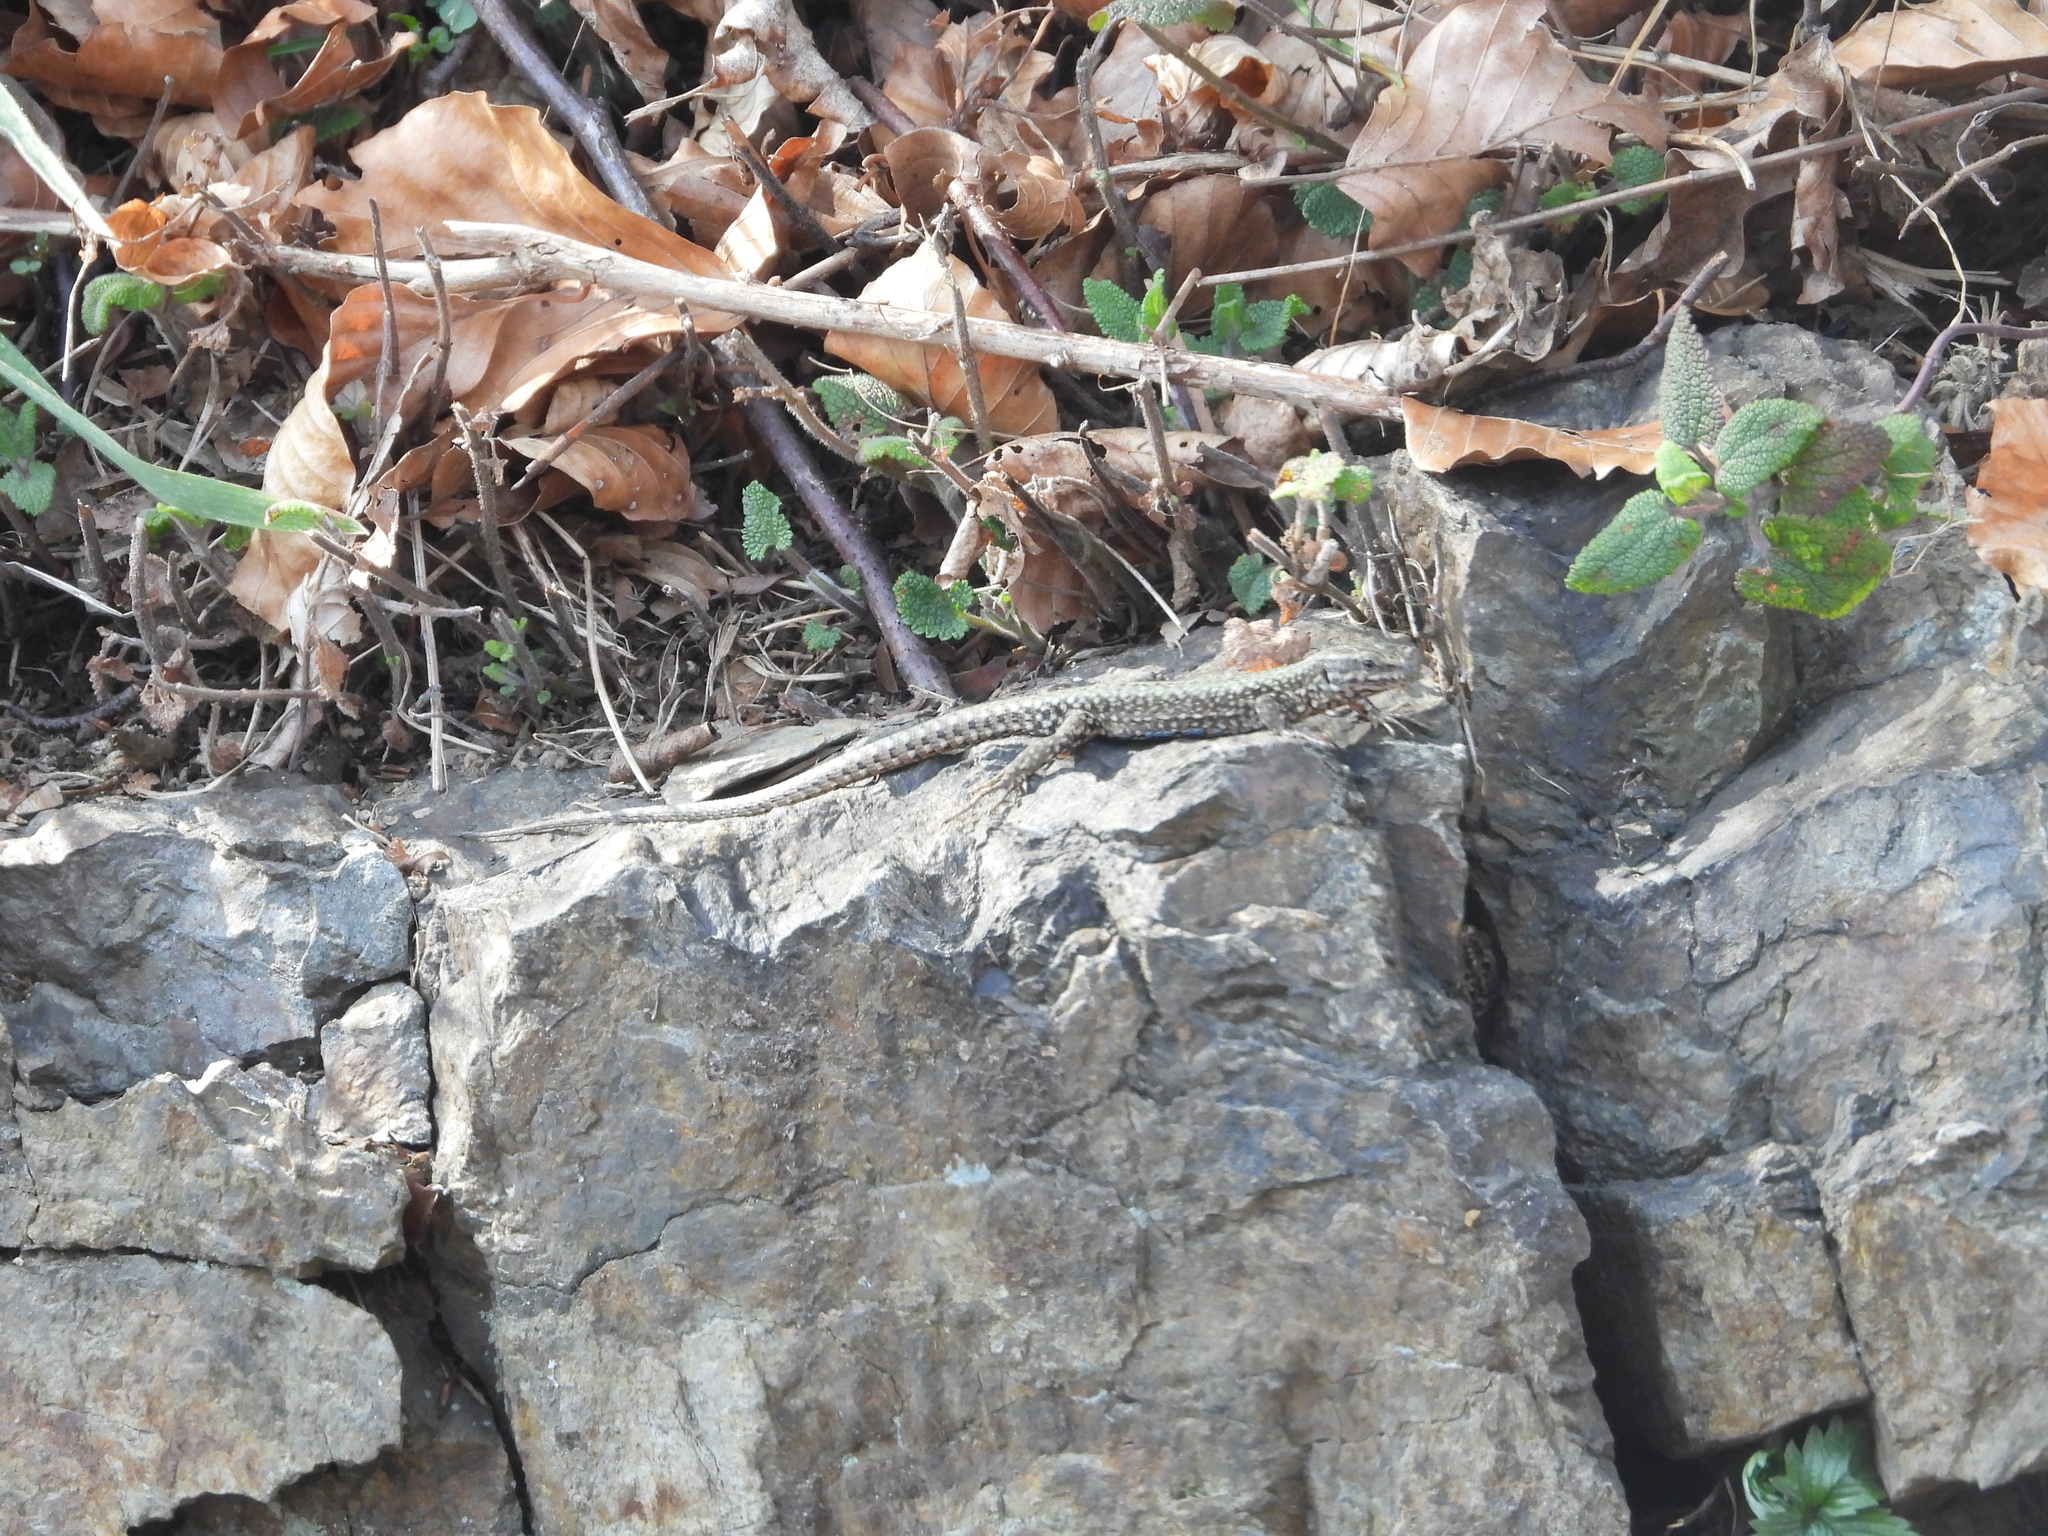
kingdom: Animalia
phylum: Chordata
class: Squamata
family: Lacertidae
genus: Podarcis
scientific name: Podarcis muralis
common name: Common wall lizard
